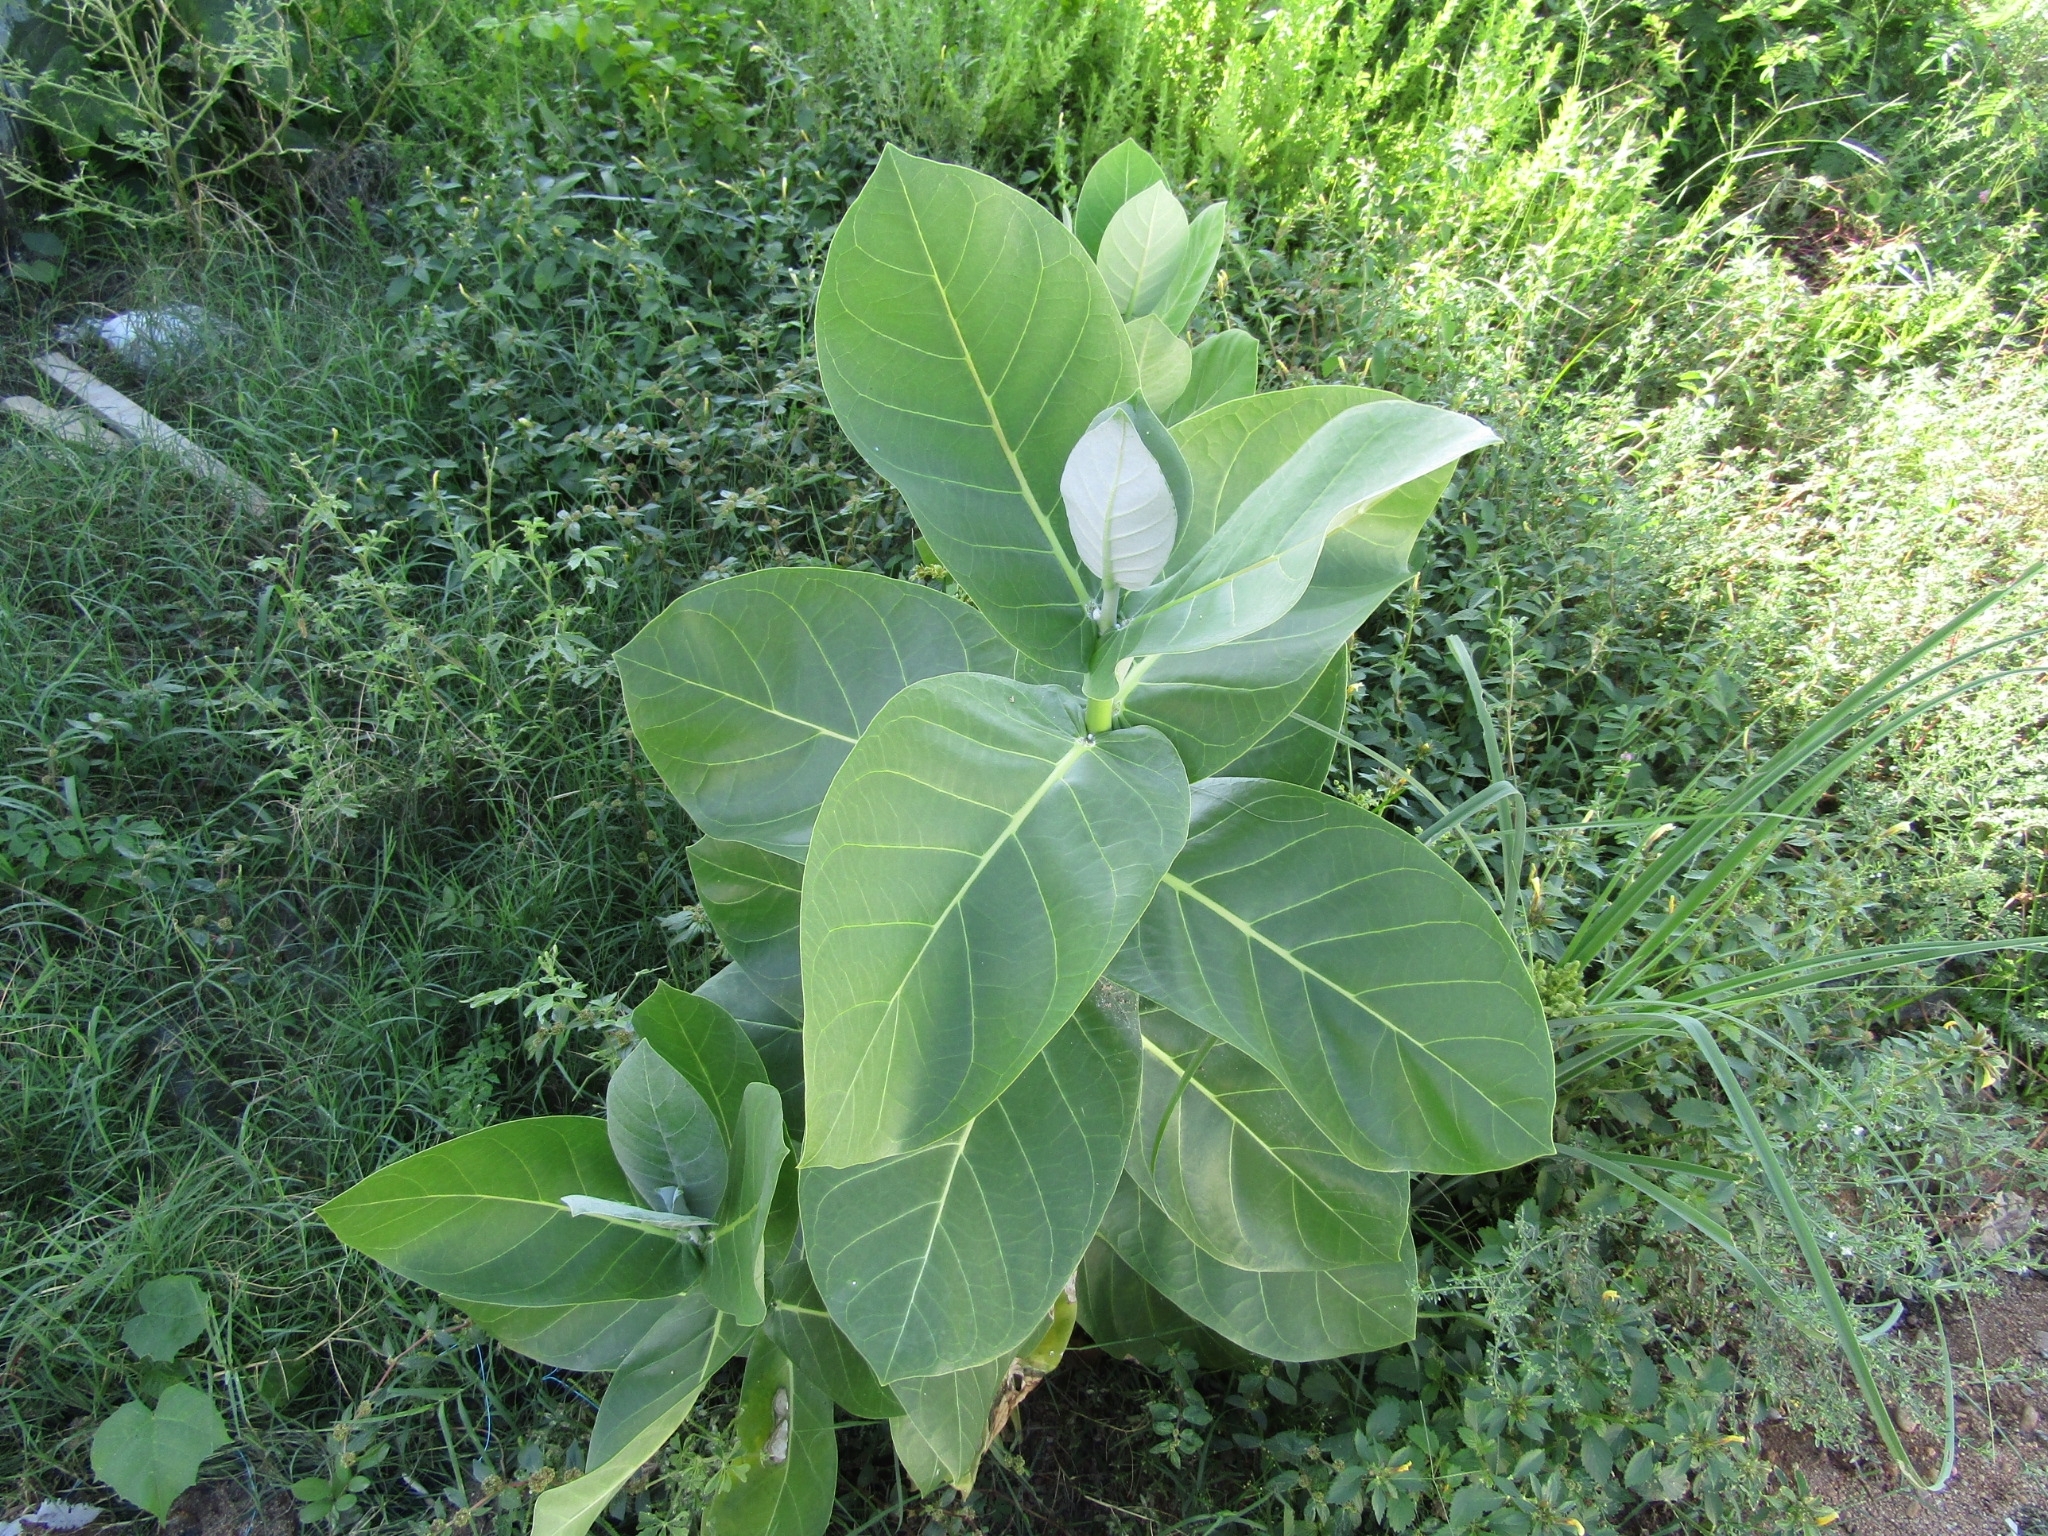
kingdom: Plantae
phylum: Tracheophyta
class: Magnoliopsida
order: Gentianales
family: Apocynaceae
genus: Calotropis
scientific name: Calotropis procera
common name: Roostertree
